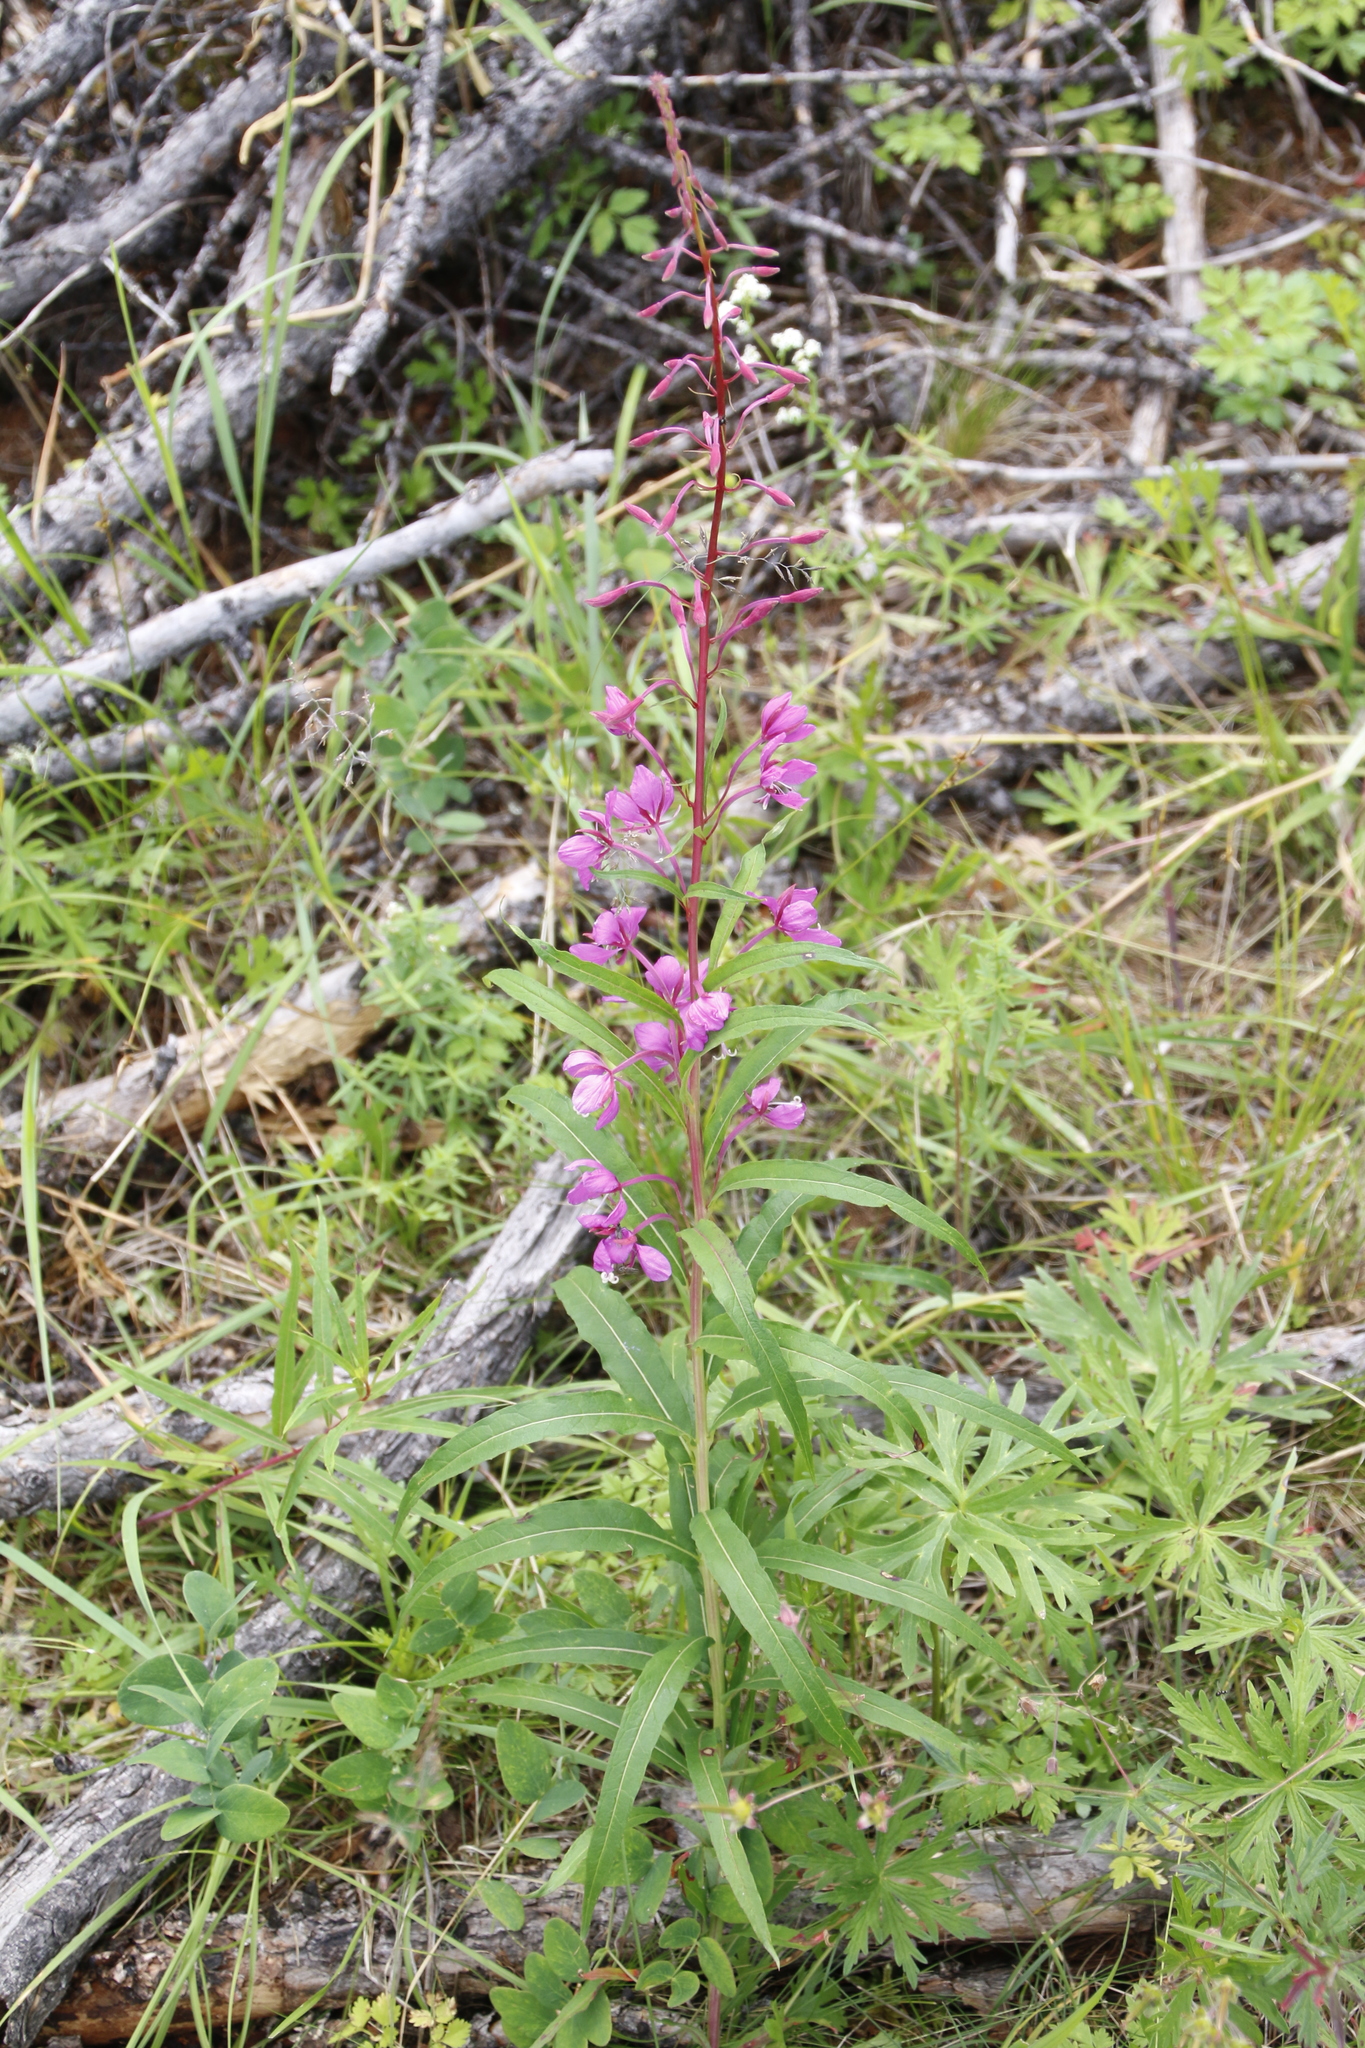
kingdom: Plantae
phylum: Tracheophyta
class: Magnoliopsida
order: Myrtales
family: Onagraceae
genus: Chamaenerion
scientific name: Chamaenerion angustifolium
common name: Fireweed
